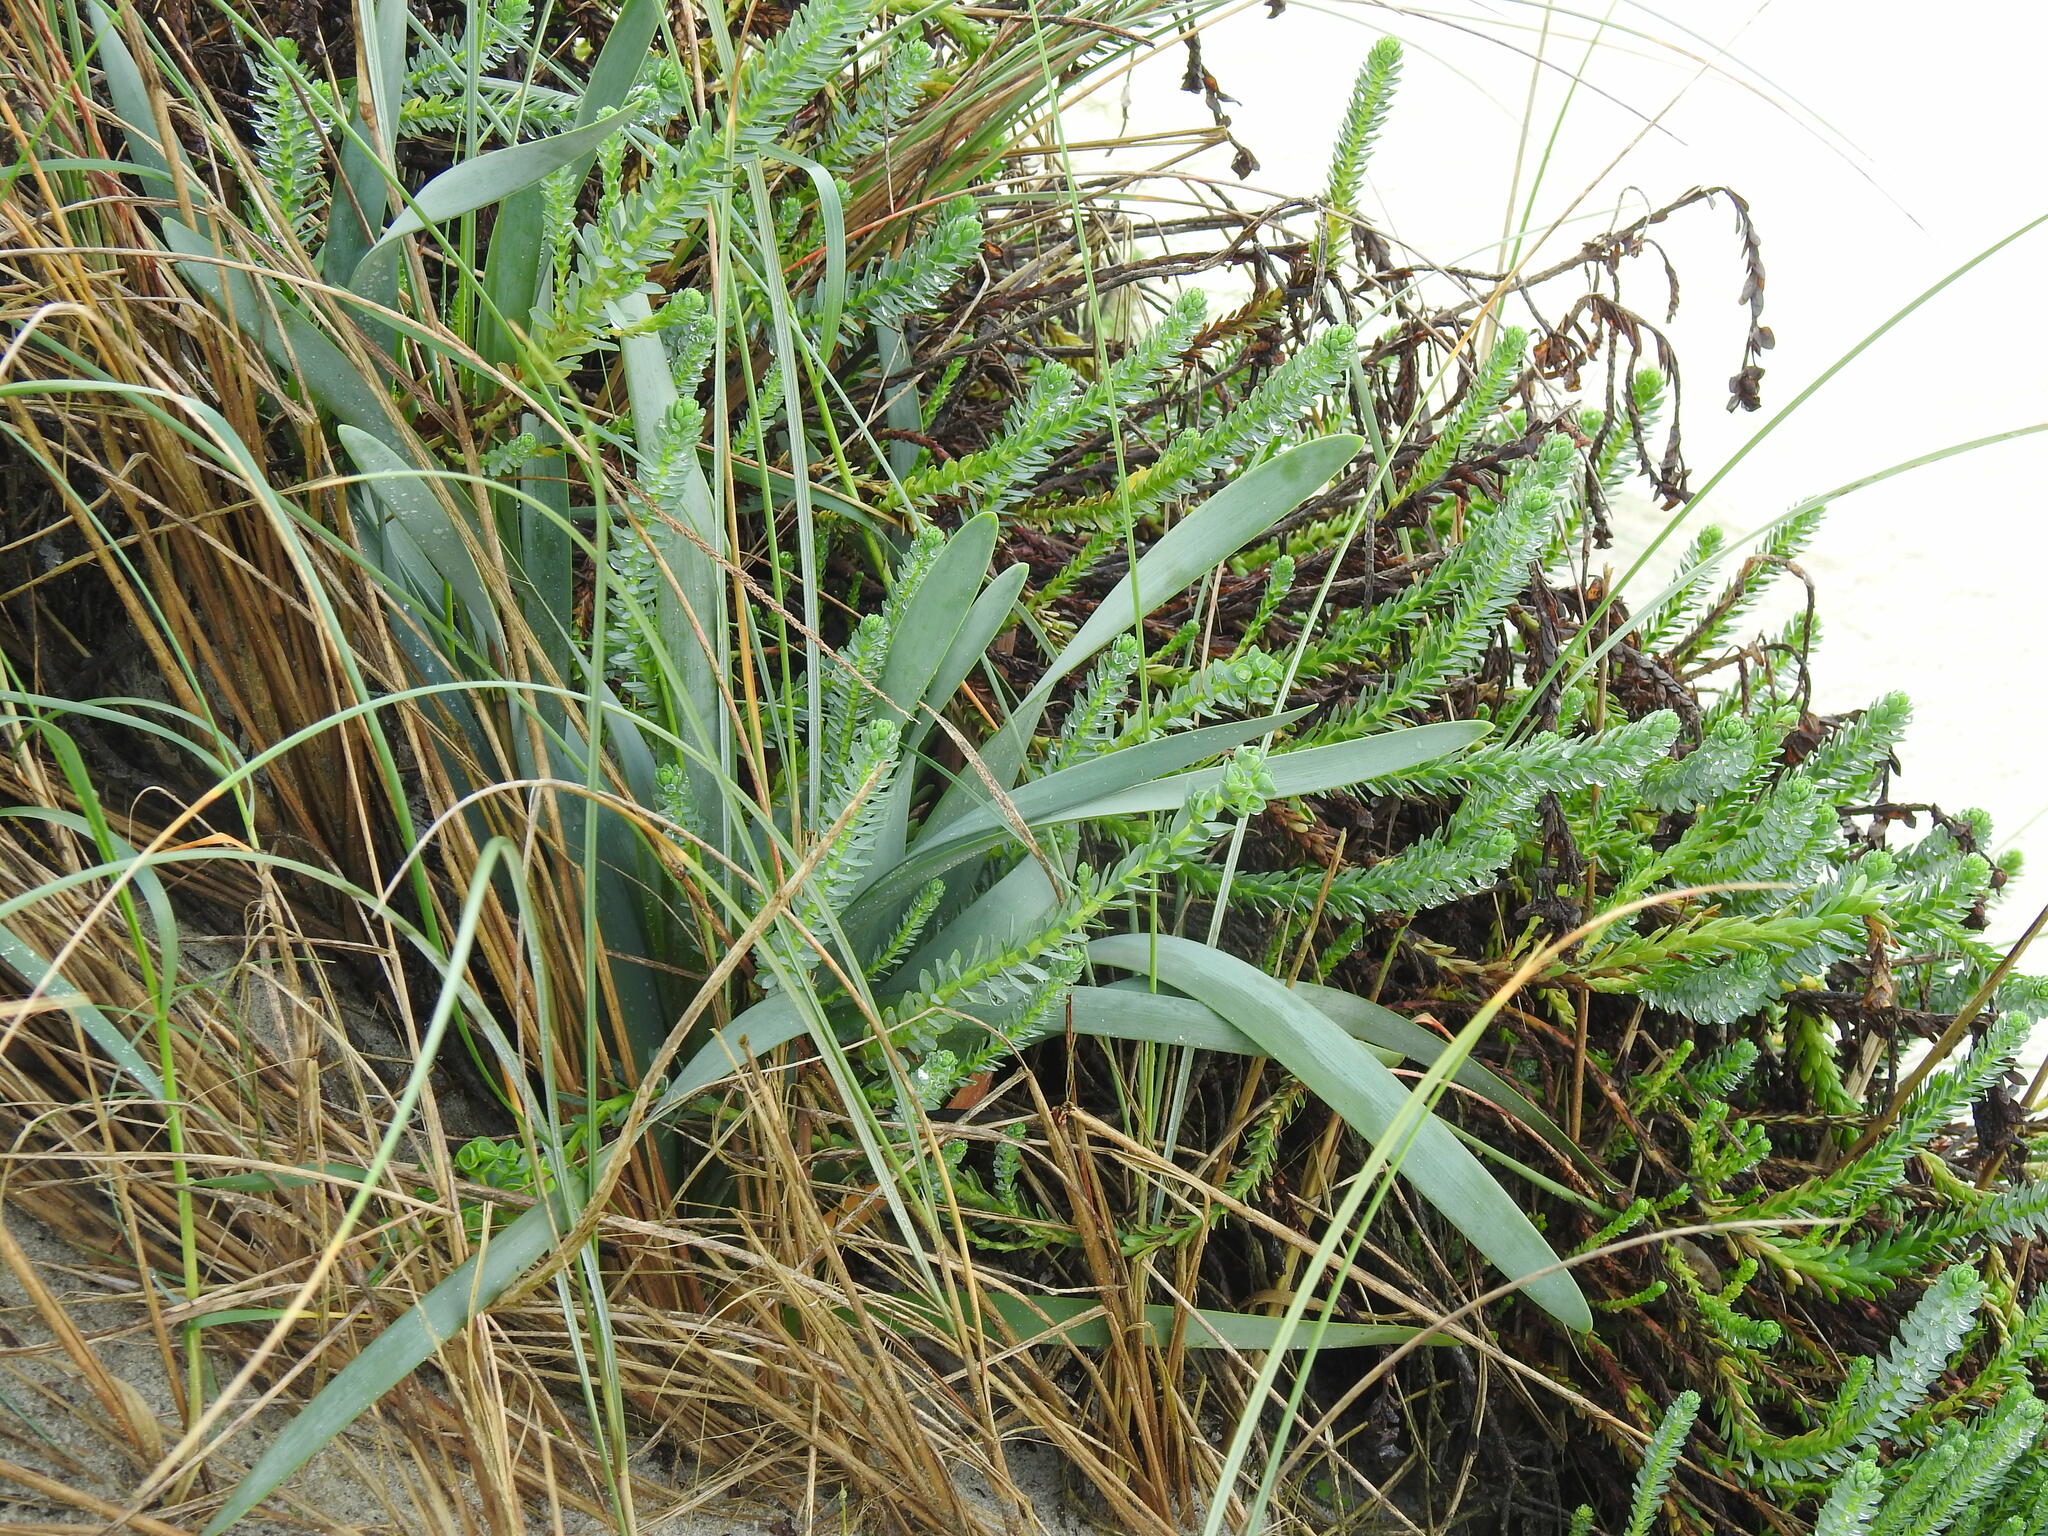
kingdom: Plantae
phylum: Tracheophyta
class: Liliopsida
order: Asparagales
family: Amaryllidaceae
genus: Pancratium
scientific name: Pancratium maritimum
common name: Sea-daffodil
